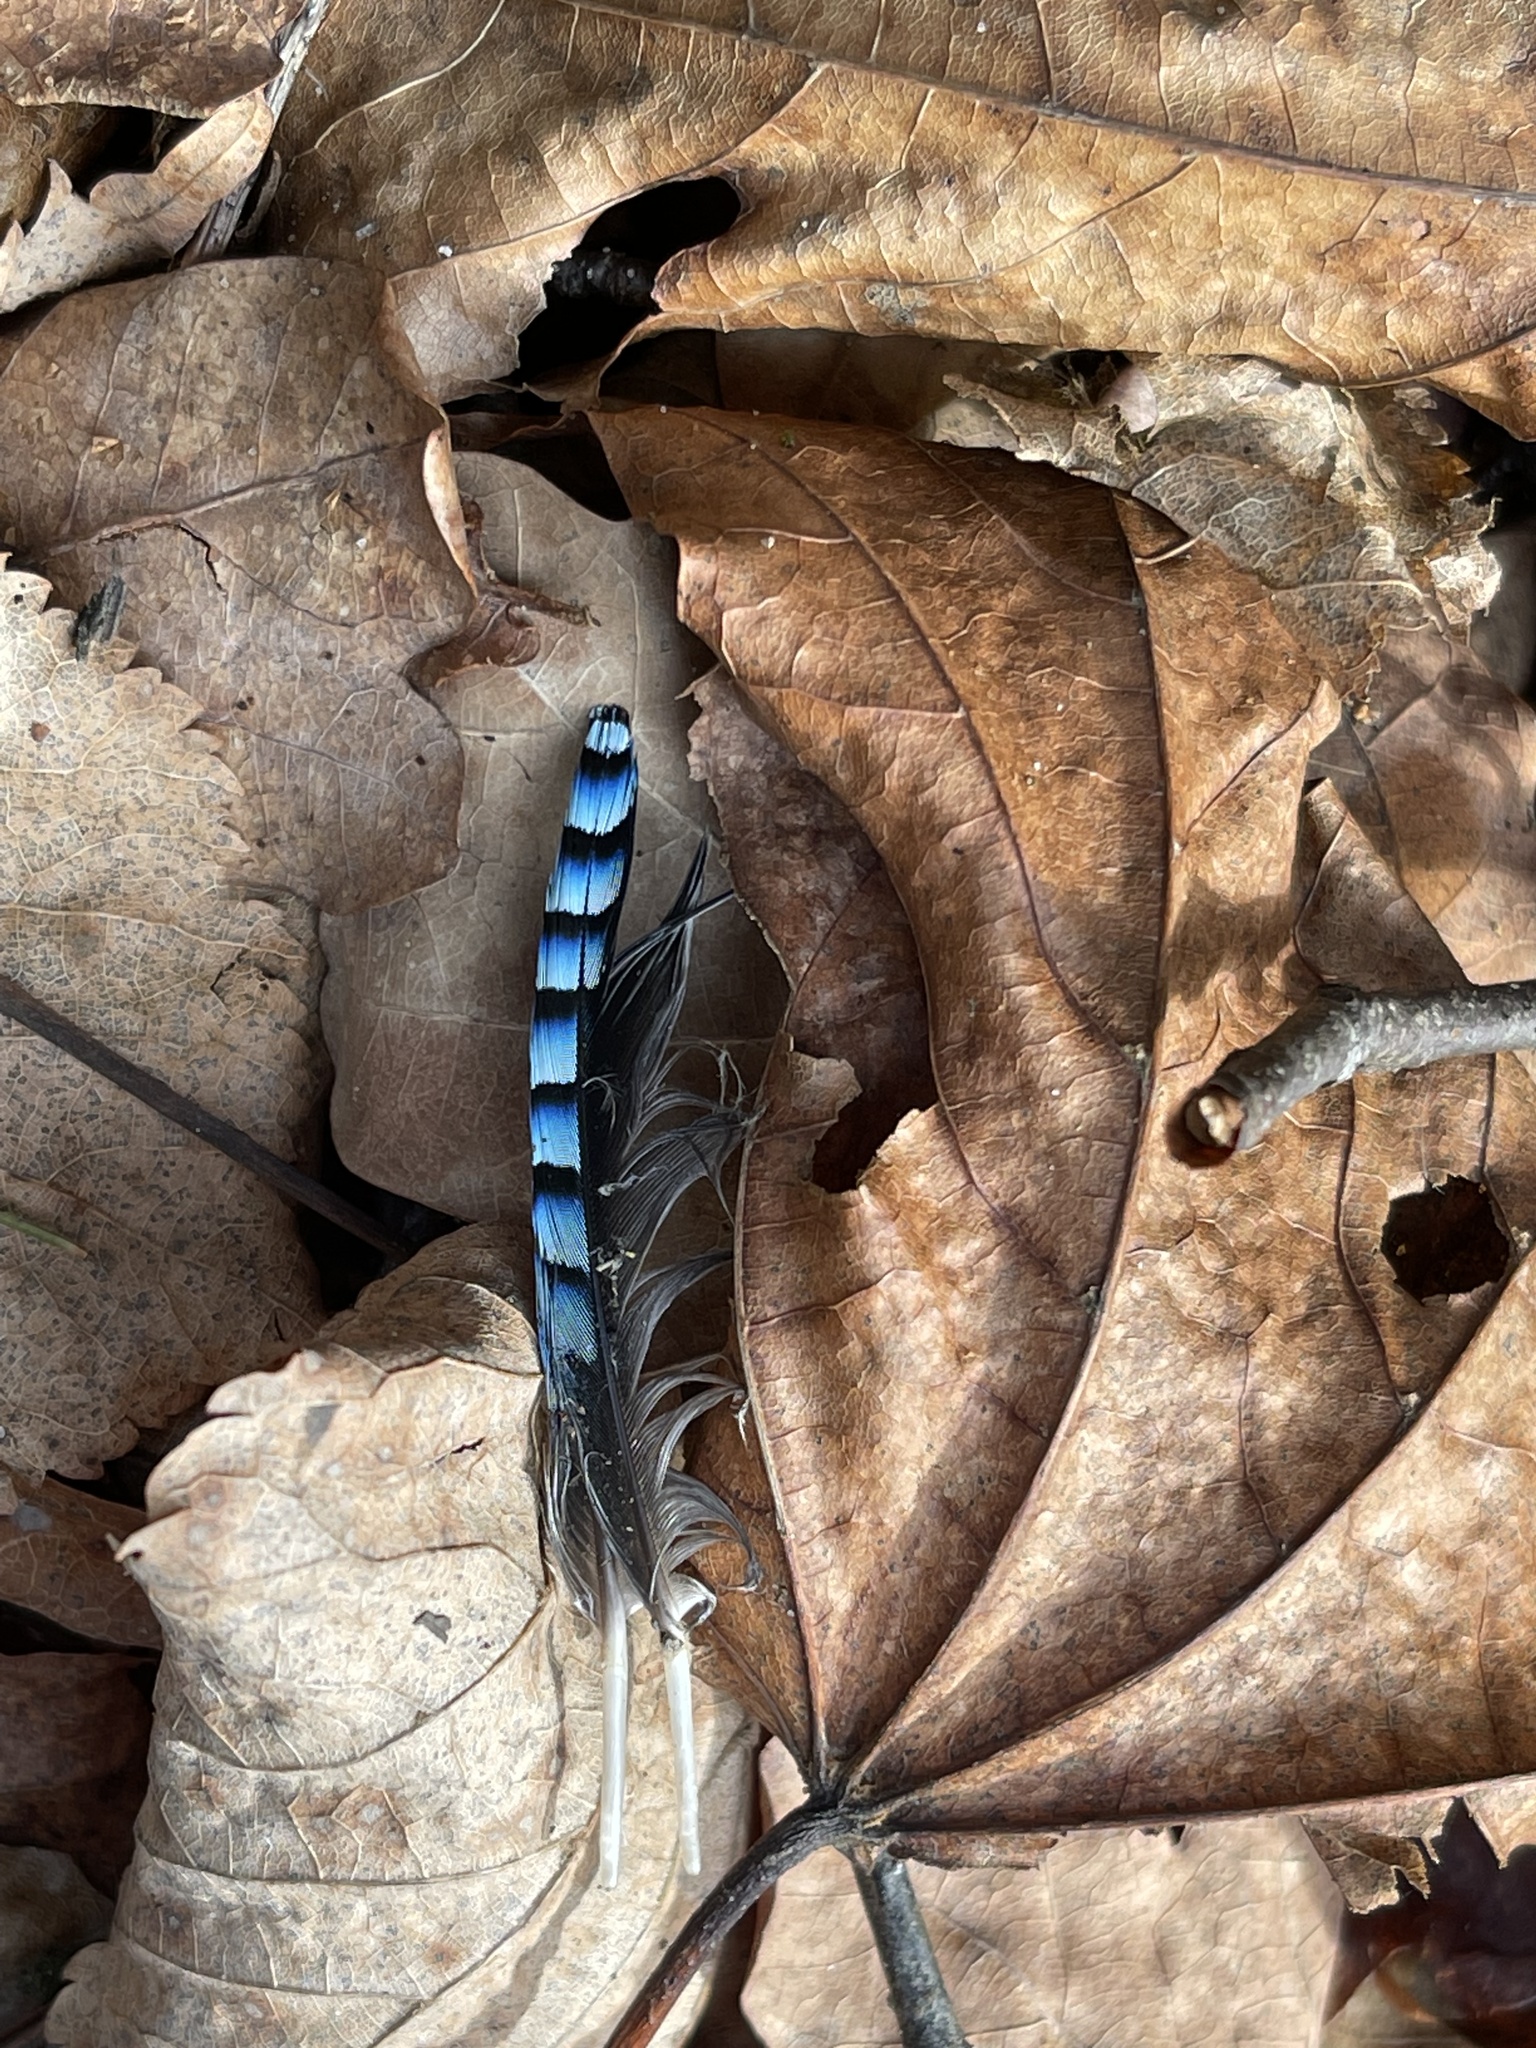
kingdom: Animalia
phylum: Chordata
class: Aves
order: Passeriformes
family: Corvidae
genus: Garrulus
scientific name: Garrulus glandarius
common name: Eurasian jay
